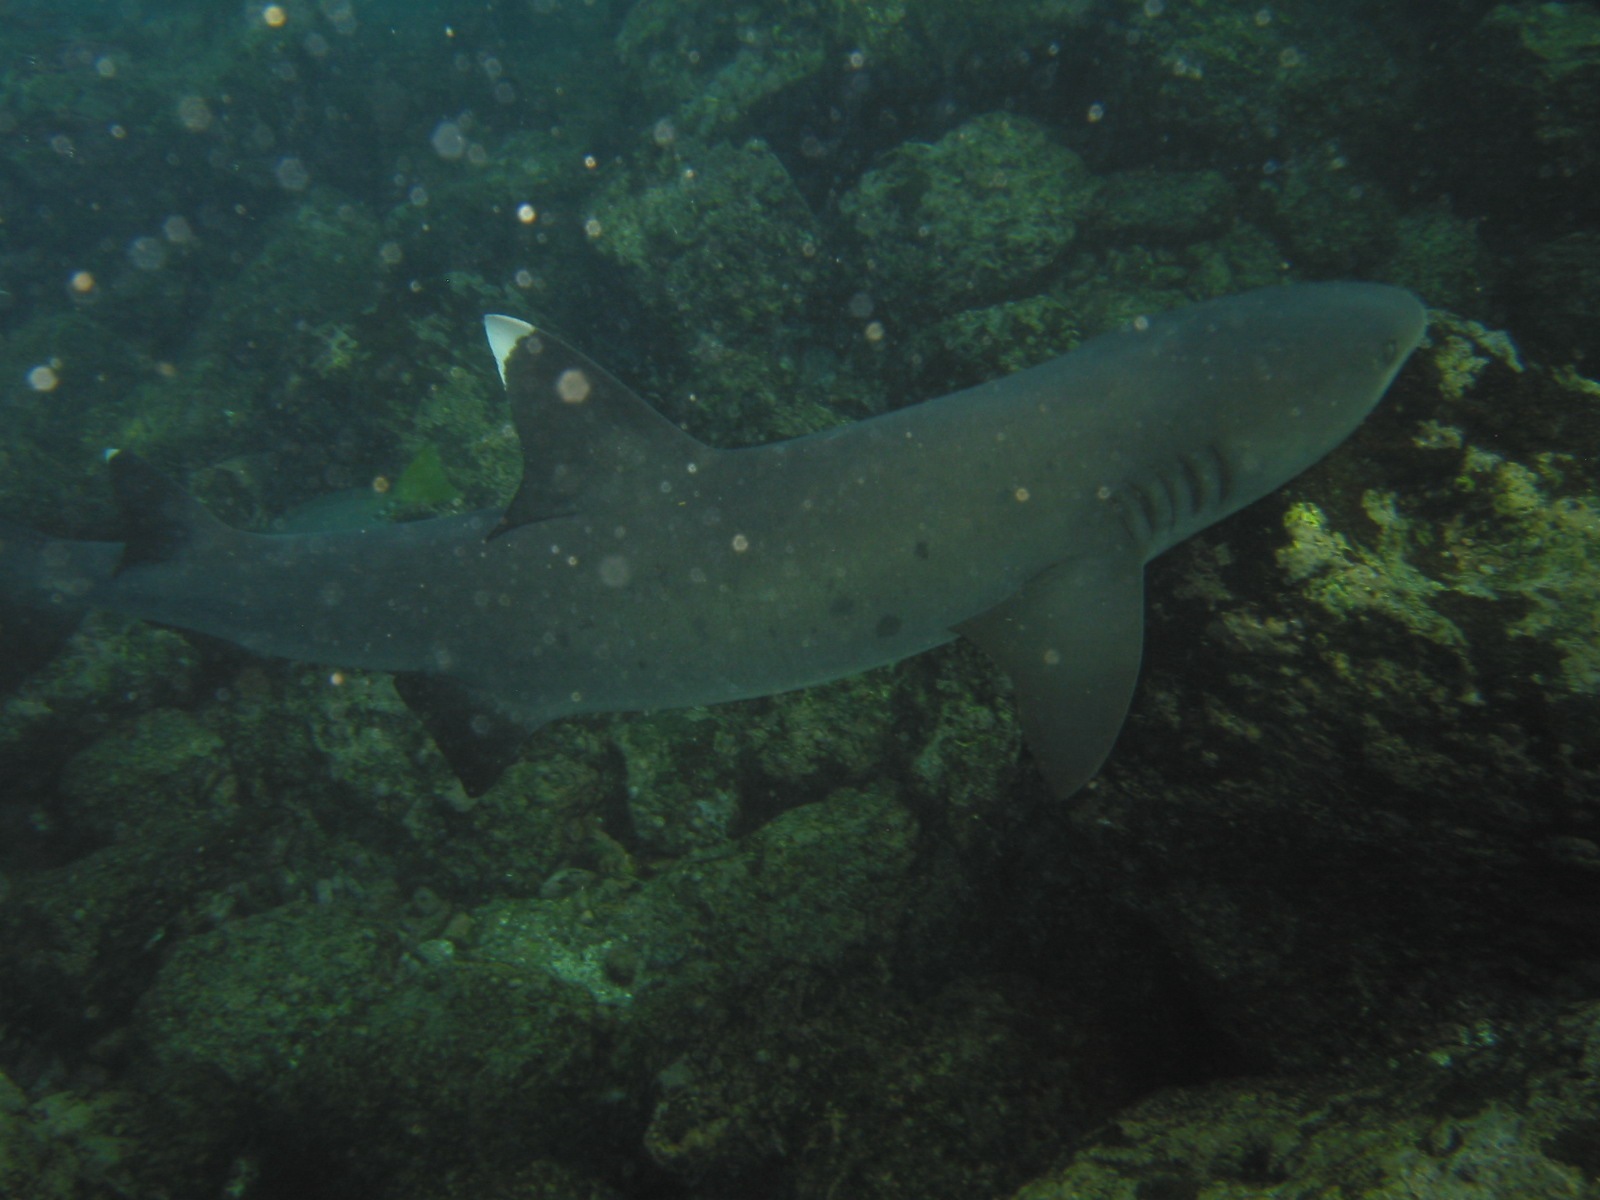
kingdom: Animalia
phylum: Chordata
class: Elasmobranchii
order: Carcharhiniformes
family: Carcharhinidae
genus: Triaenodon
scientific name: Triaenodon obesus
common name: Whitetip reef shark
